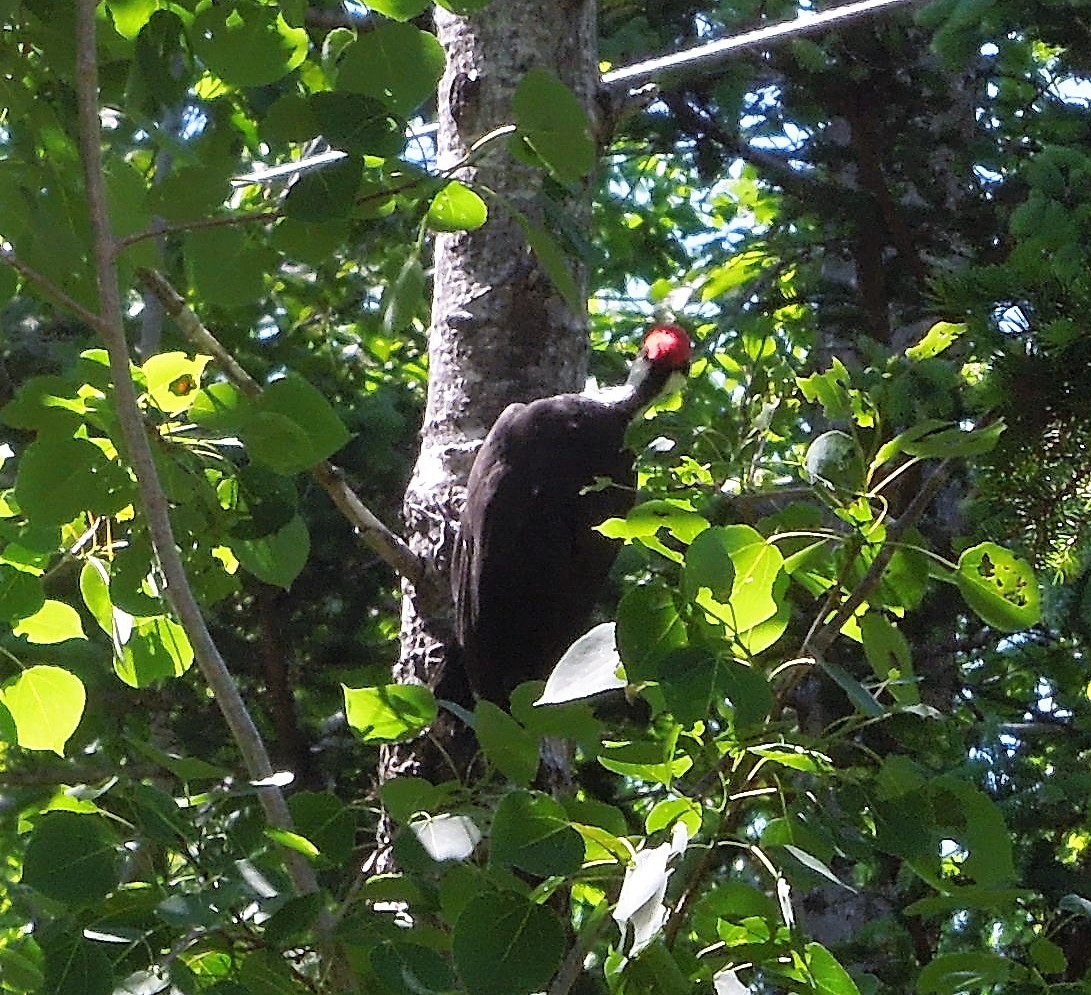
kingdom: Animalia
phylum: Chordata
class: Aves
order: Piciformes
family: Picidae
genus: Dryocopus
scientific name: Dryocopus pileatus
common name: Pileated woodpecker
